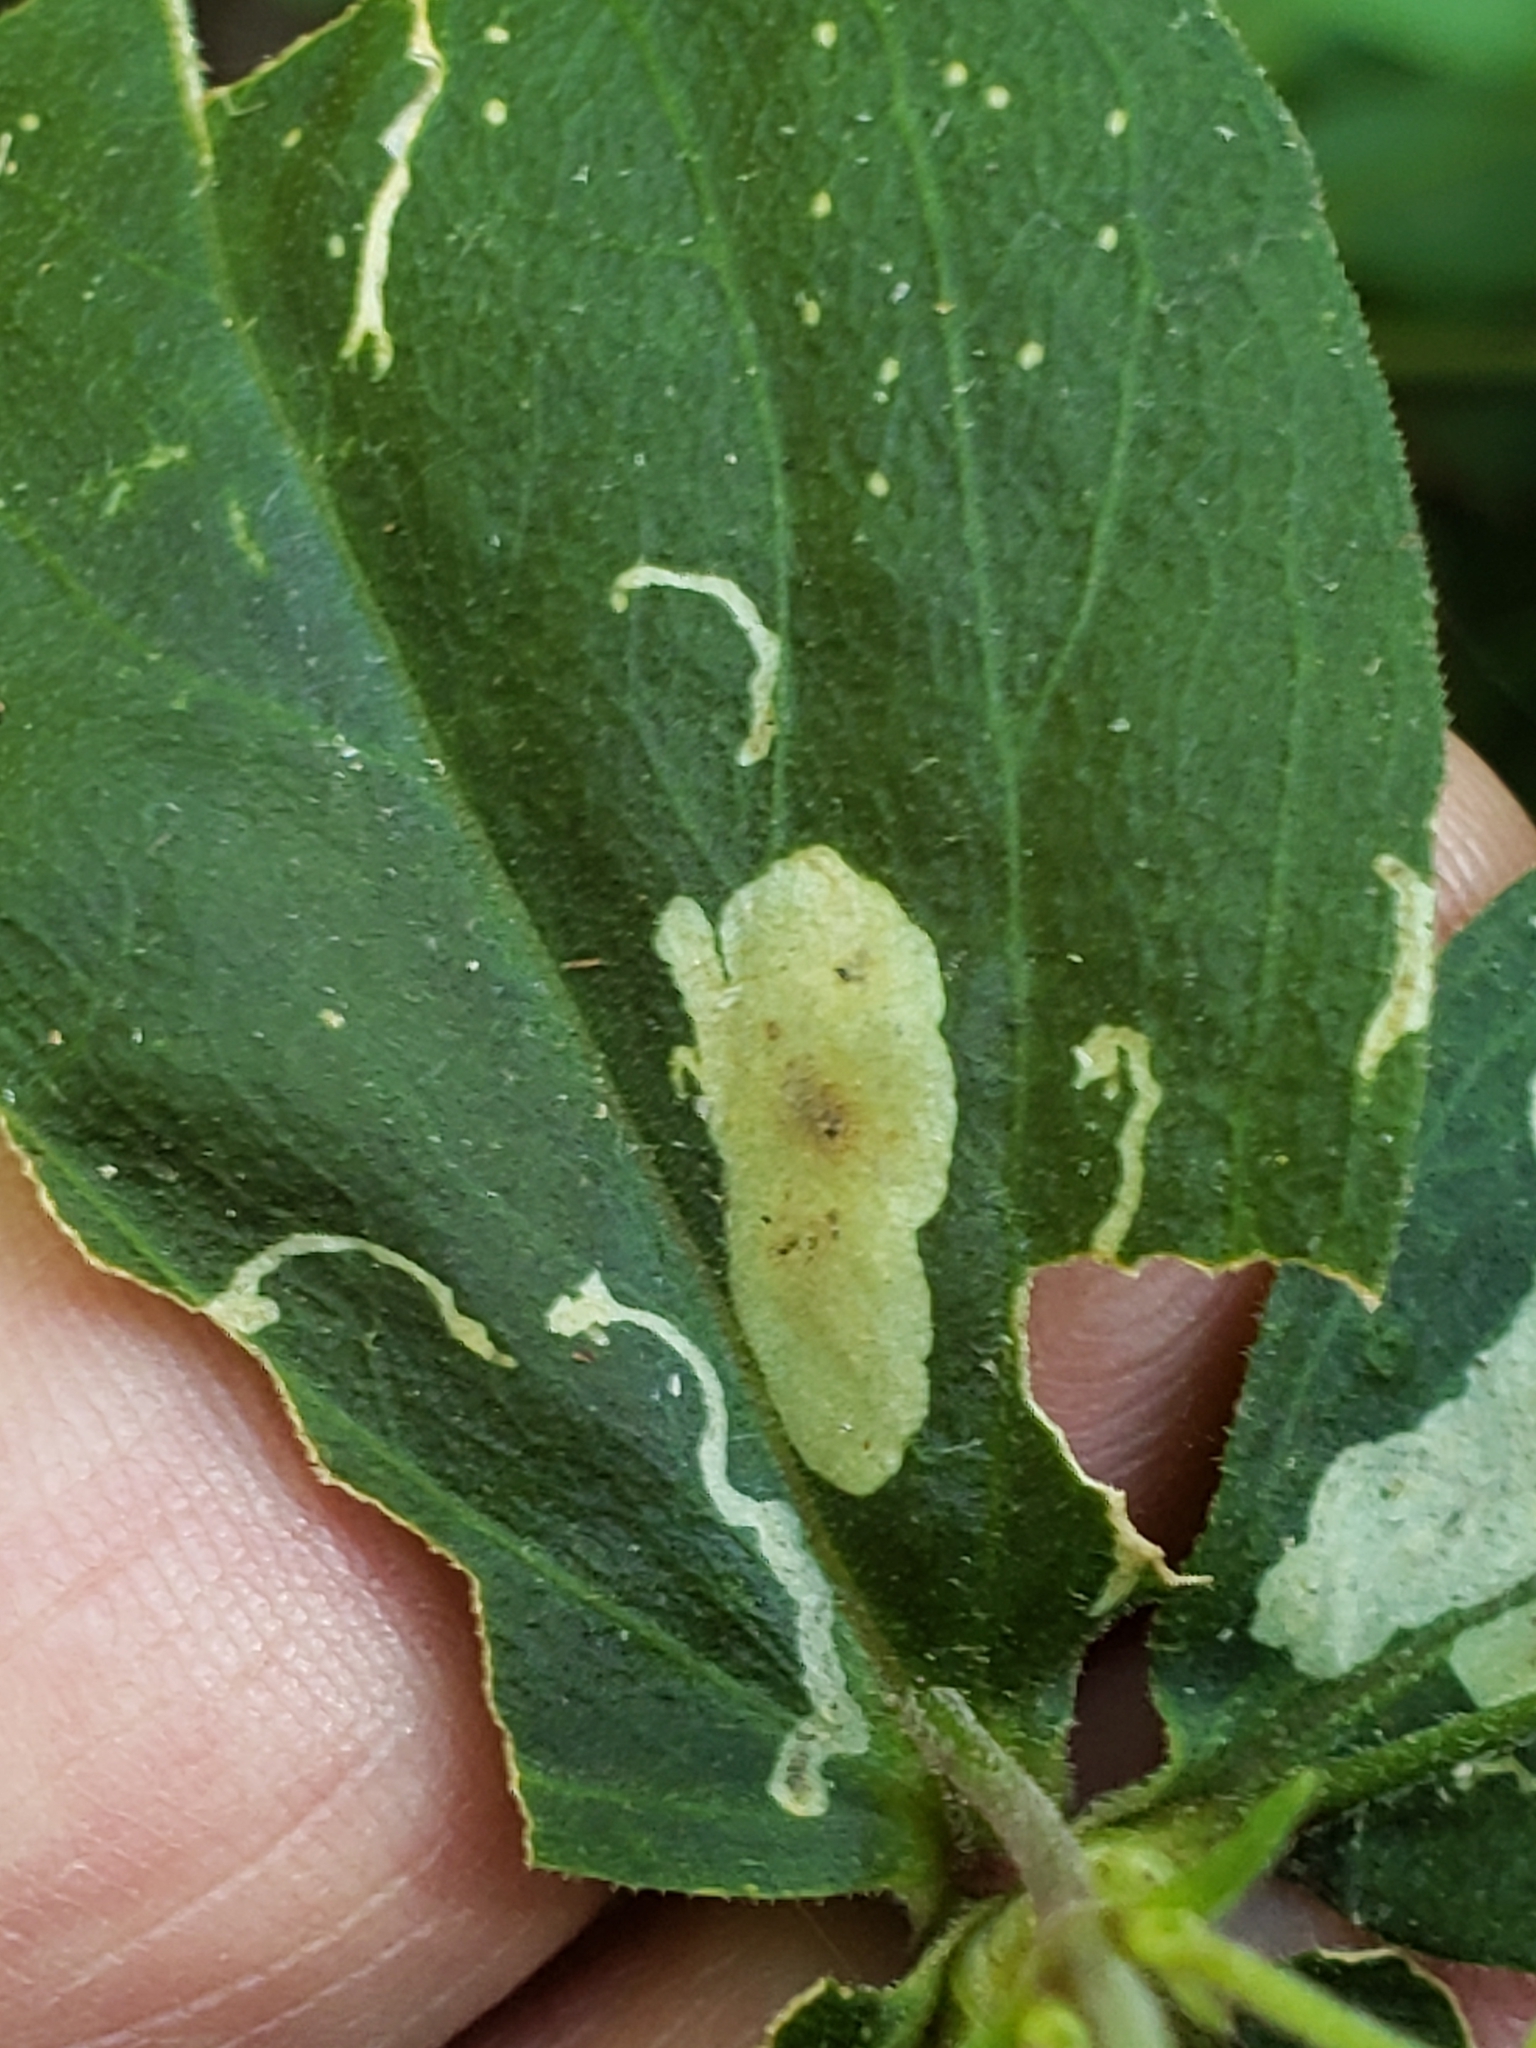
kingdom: Animalia
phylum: Arthropoda
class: Insecta
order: Diptera
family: Agromyzidae
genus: Amauromyza
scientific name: Amauromyza flavifrons
